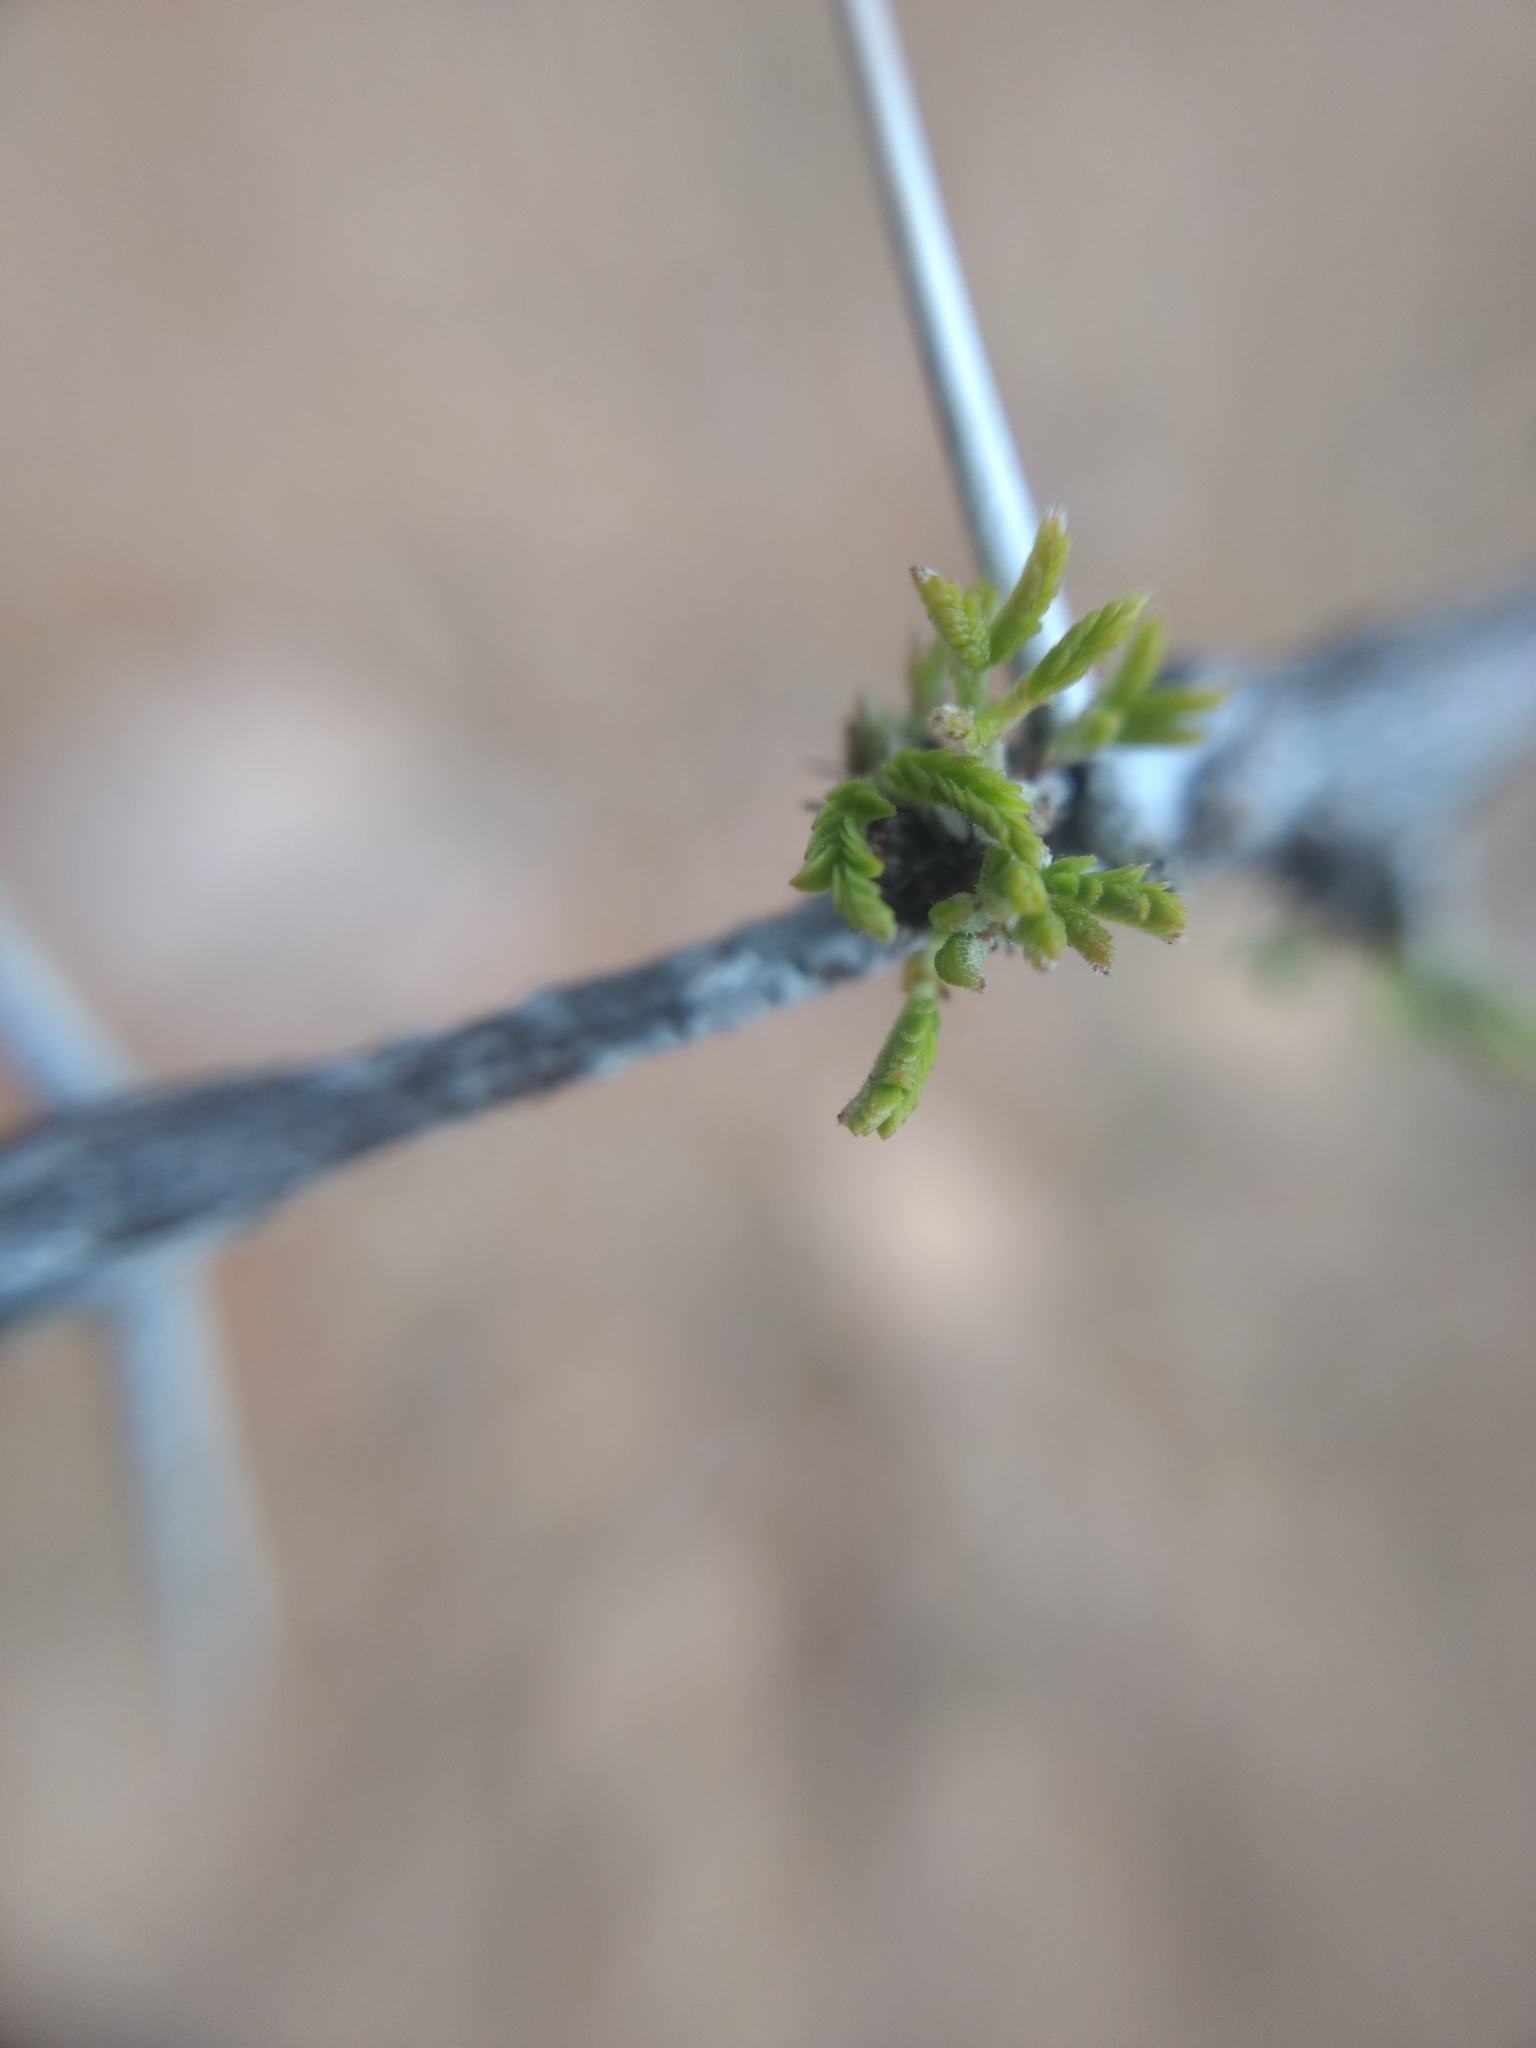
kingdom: Plantae
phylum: Tracheophyta
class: Magnoliopsida
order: Fabales
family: Fabaceae
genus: Vachellia
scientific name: Vachellia farnesiana
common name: Sweet acacia
